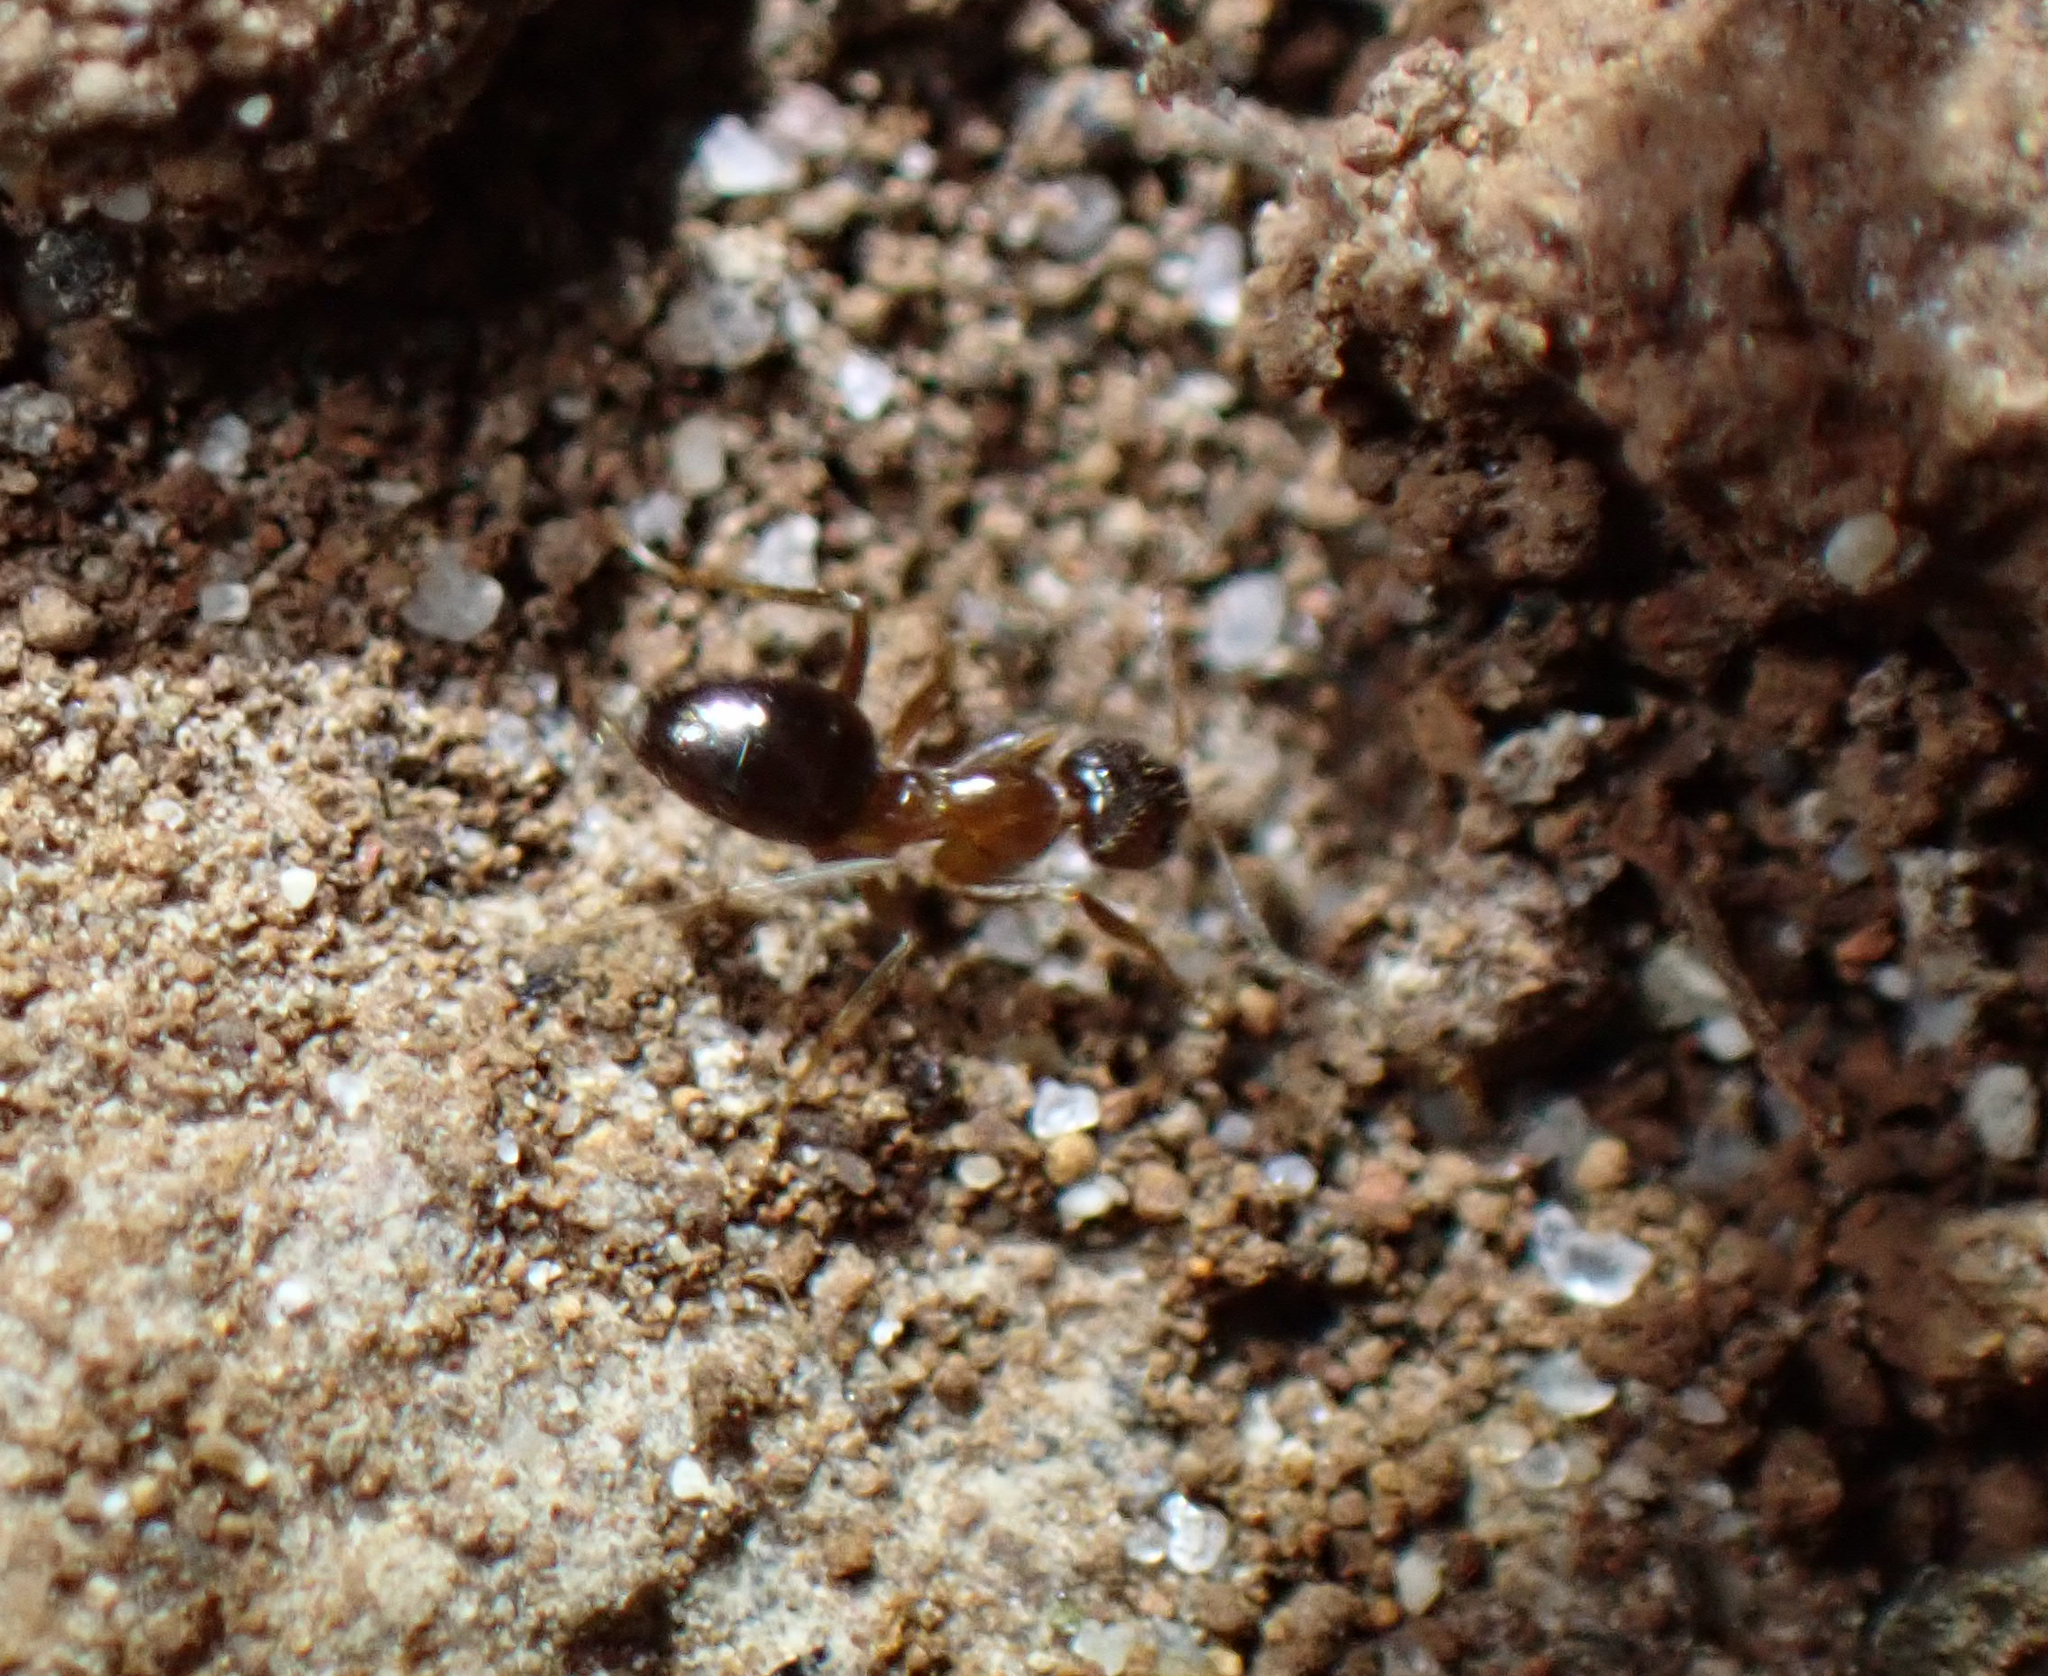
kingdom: Animalia
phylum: Arthropoda
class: Insecta
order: Hymenoptera
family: Formicidae
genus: Paratrechina
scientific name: Paratrechina jaegerskioeldi
